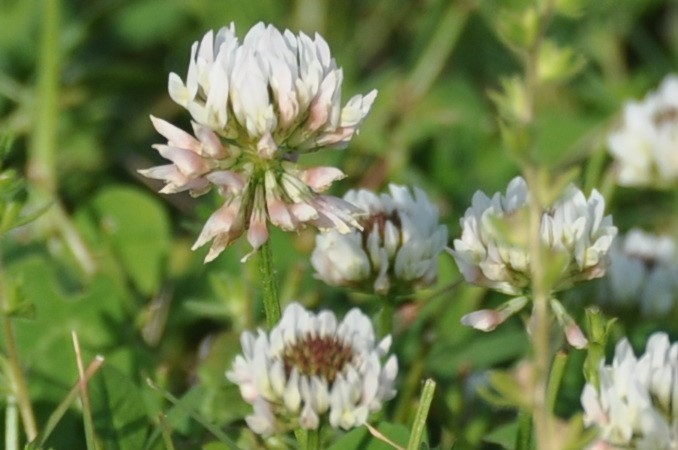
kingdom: Plantae
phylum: Tracheophyta
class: Magnoliopsida
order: Fabales
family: Fabaceae
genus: Trifolium
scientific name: Trifolium repens
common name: White clover
